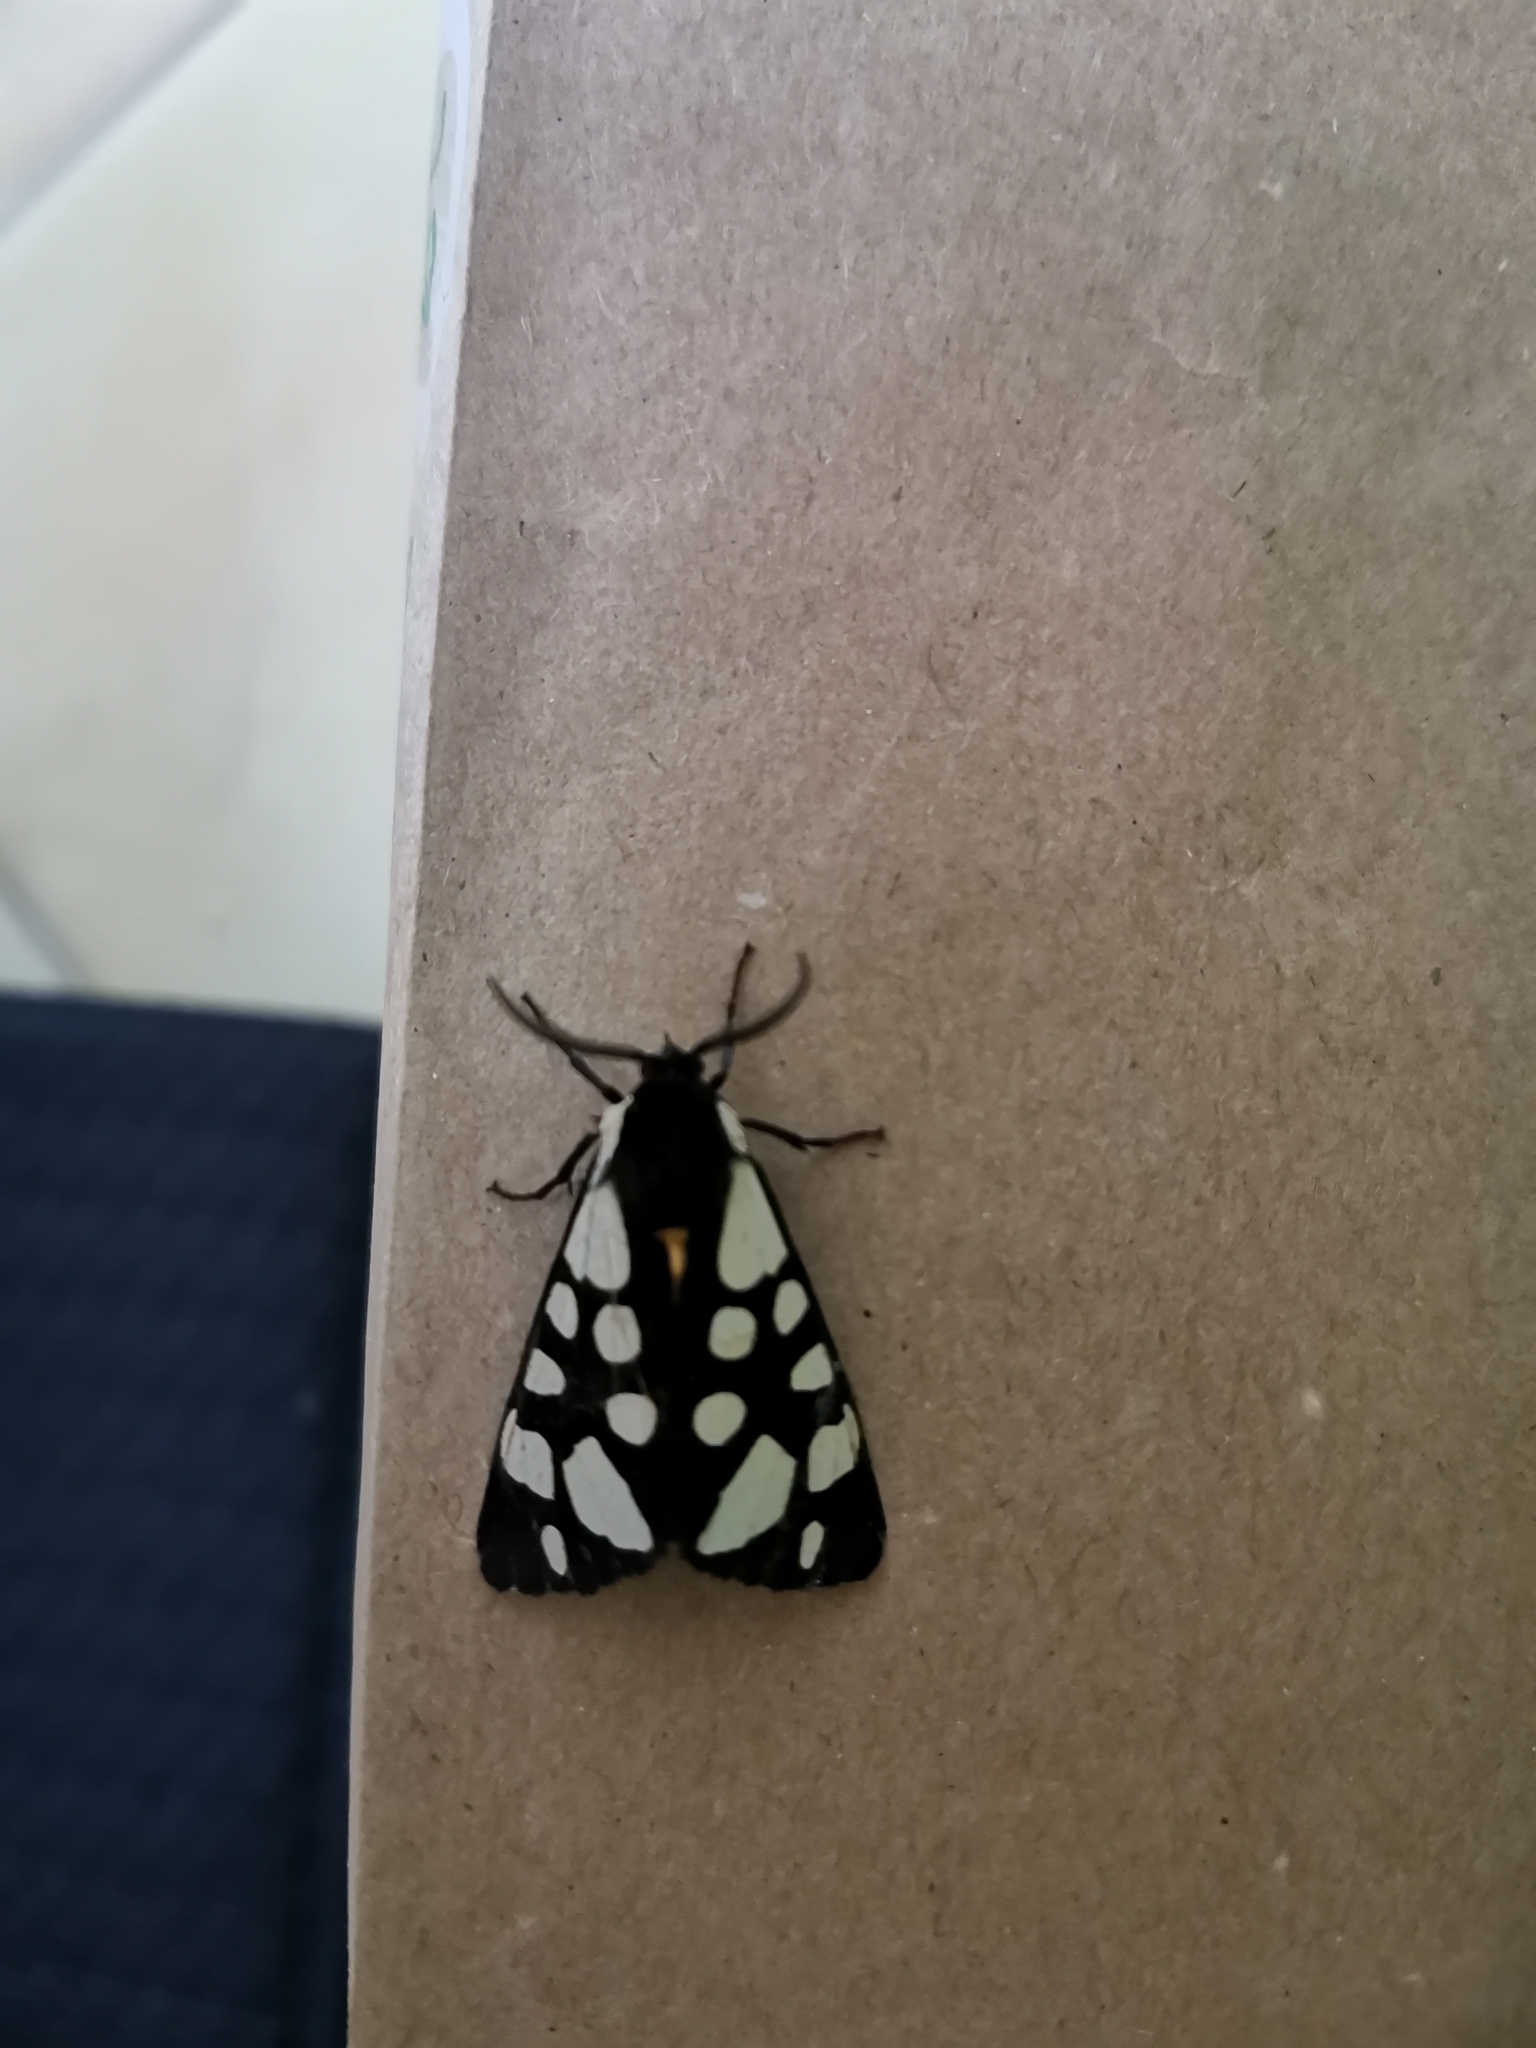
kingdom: Animalia
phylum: Arthropoda
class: Insecta
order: Lepidoptera
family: Erebidae
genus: Epicallia
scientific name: Epicallia villica
